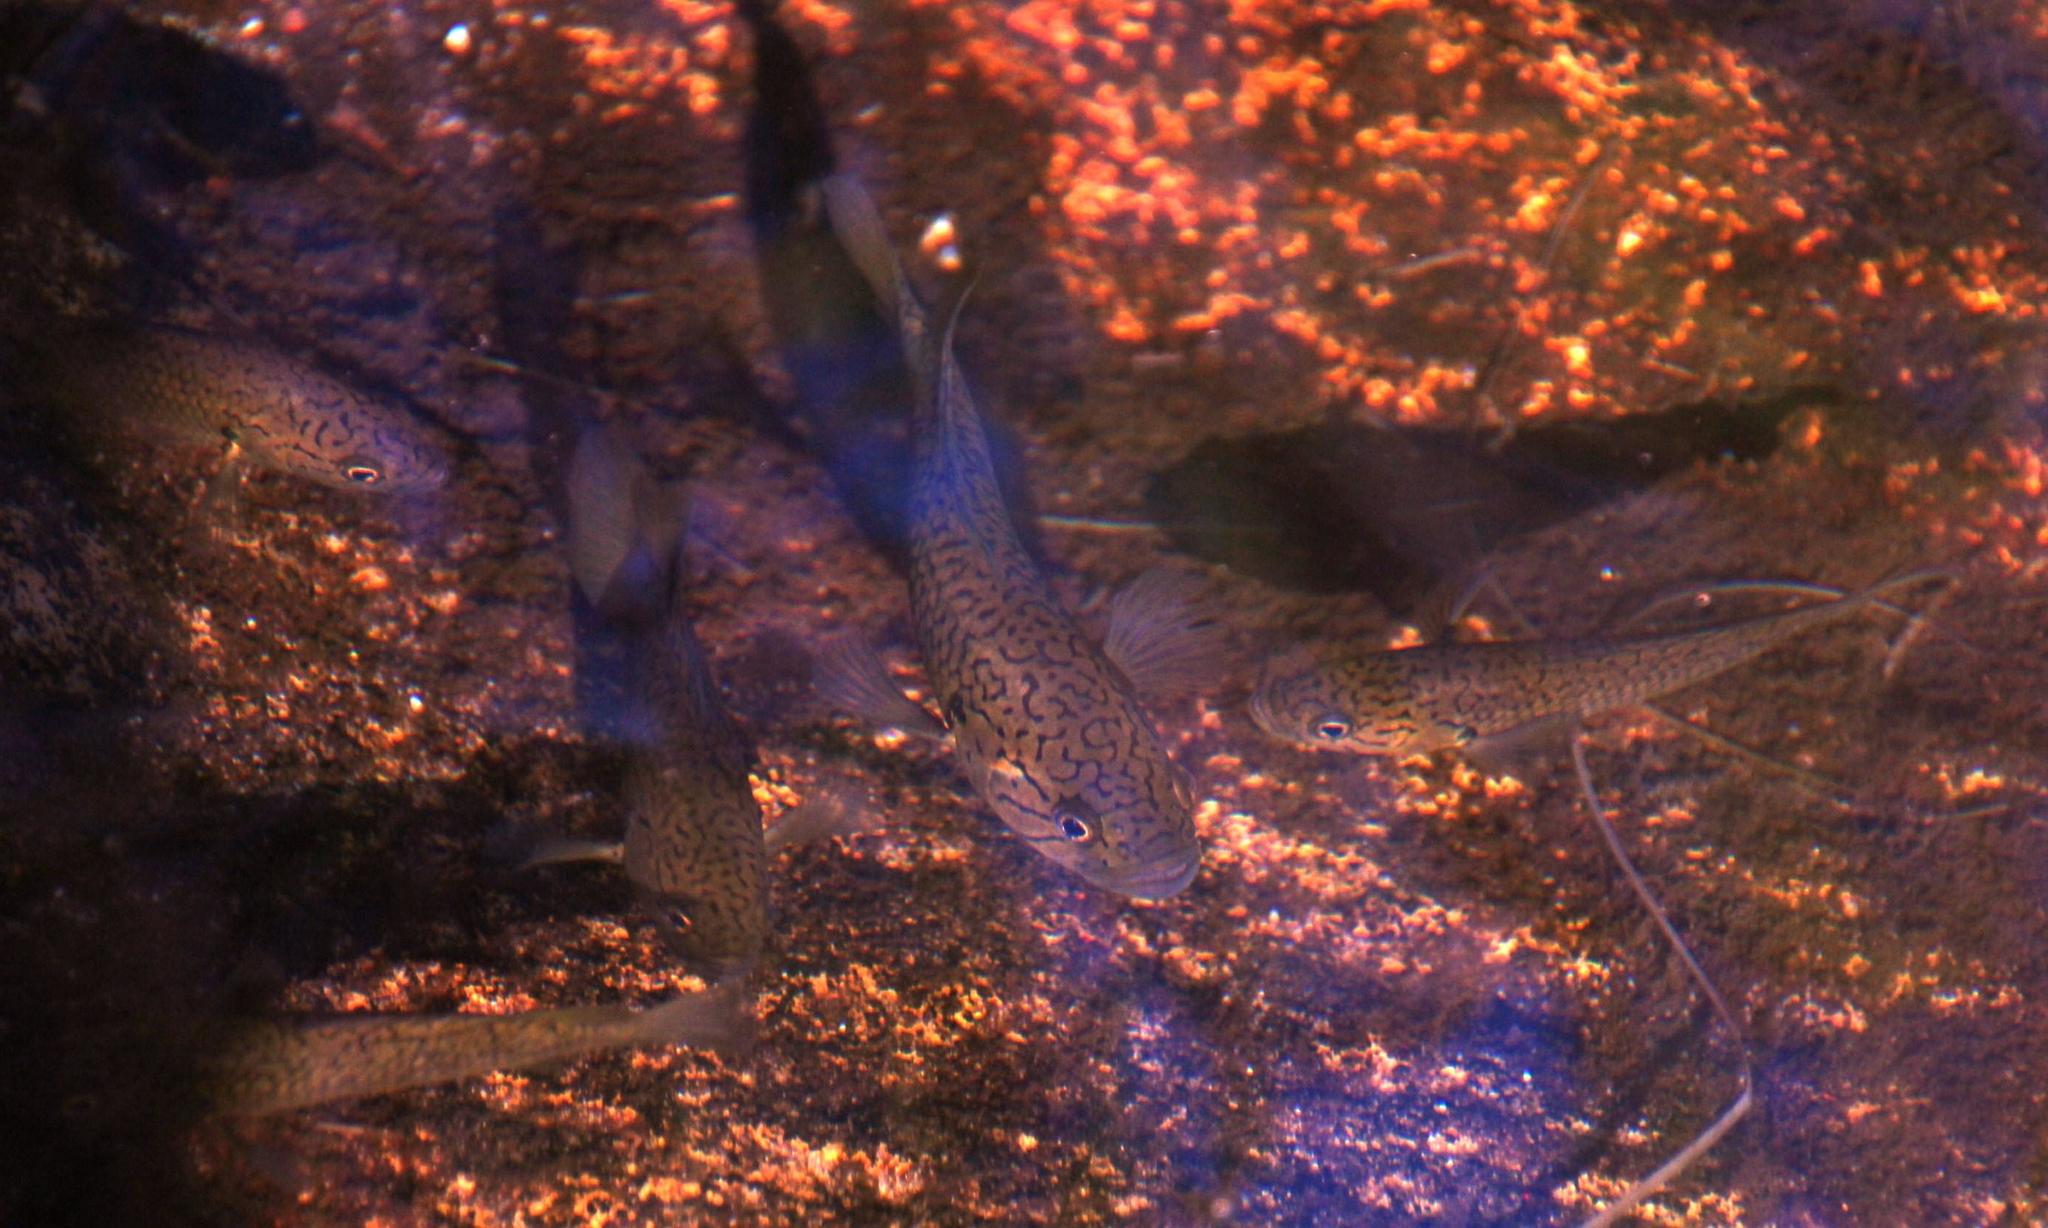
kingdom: Animalia
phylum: Chordata
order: Perciformes
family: Anabantidae
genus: Sandelia
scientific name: Sandelia capensis
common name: Cape kurper
